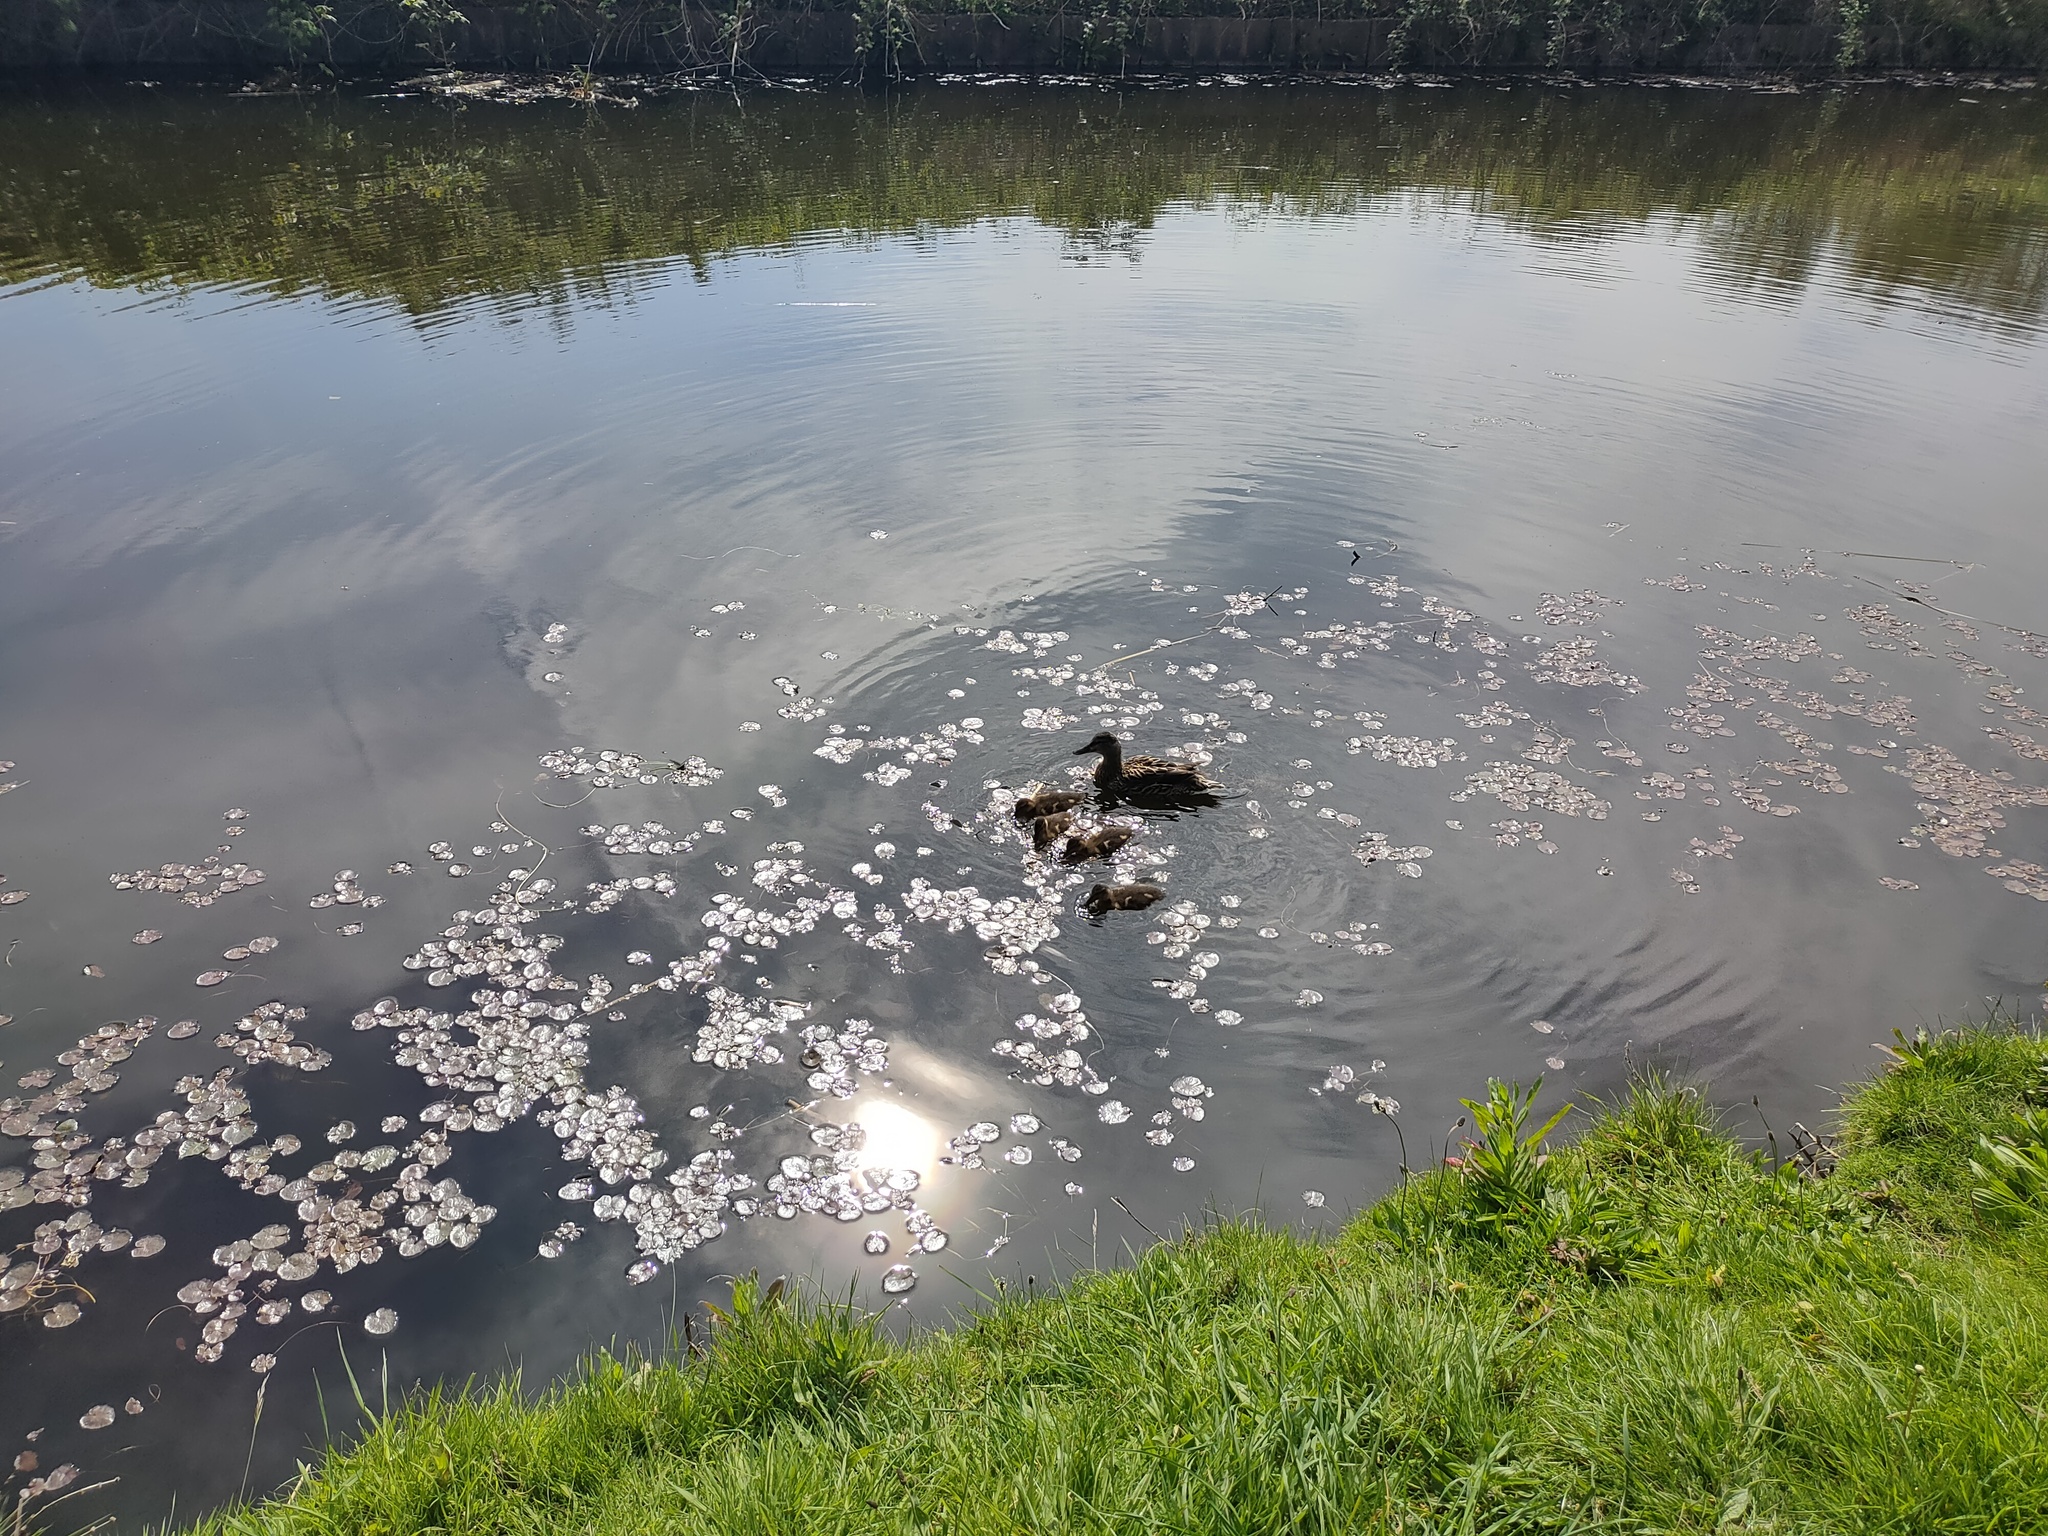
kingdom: Animalia
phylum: Chordata
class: Aves
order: Anseriformes
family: Anatidae
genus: Anas
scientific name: Anas platyrhynchos
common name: Mallard
